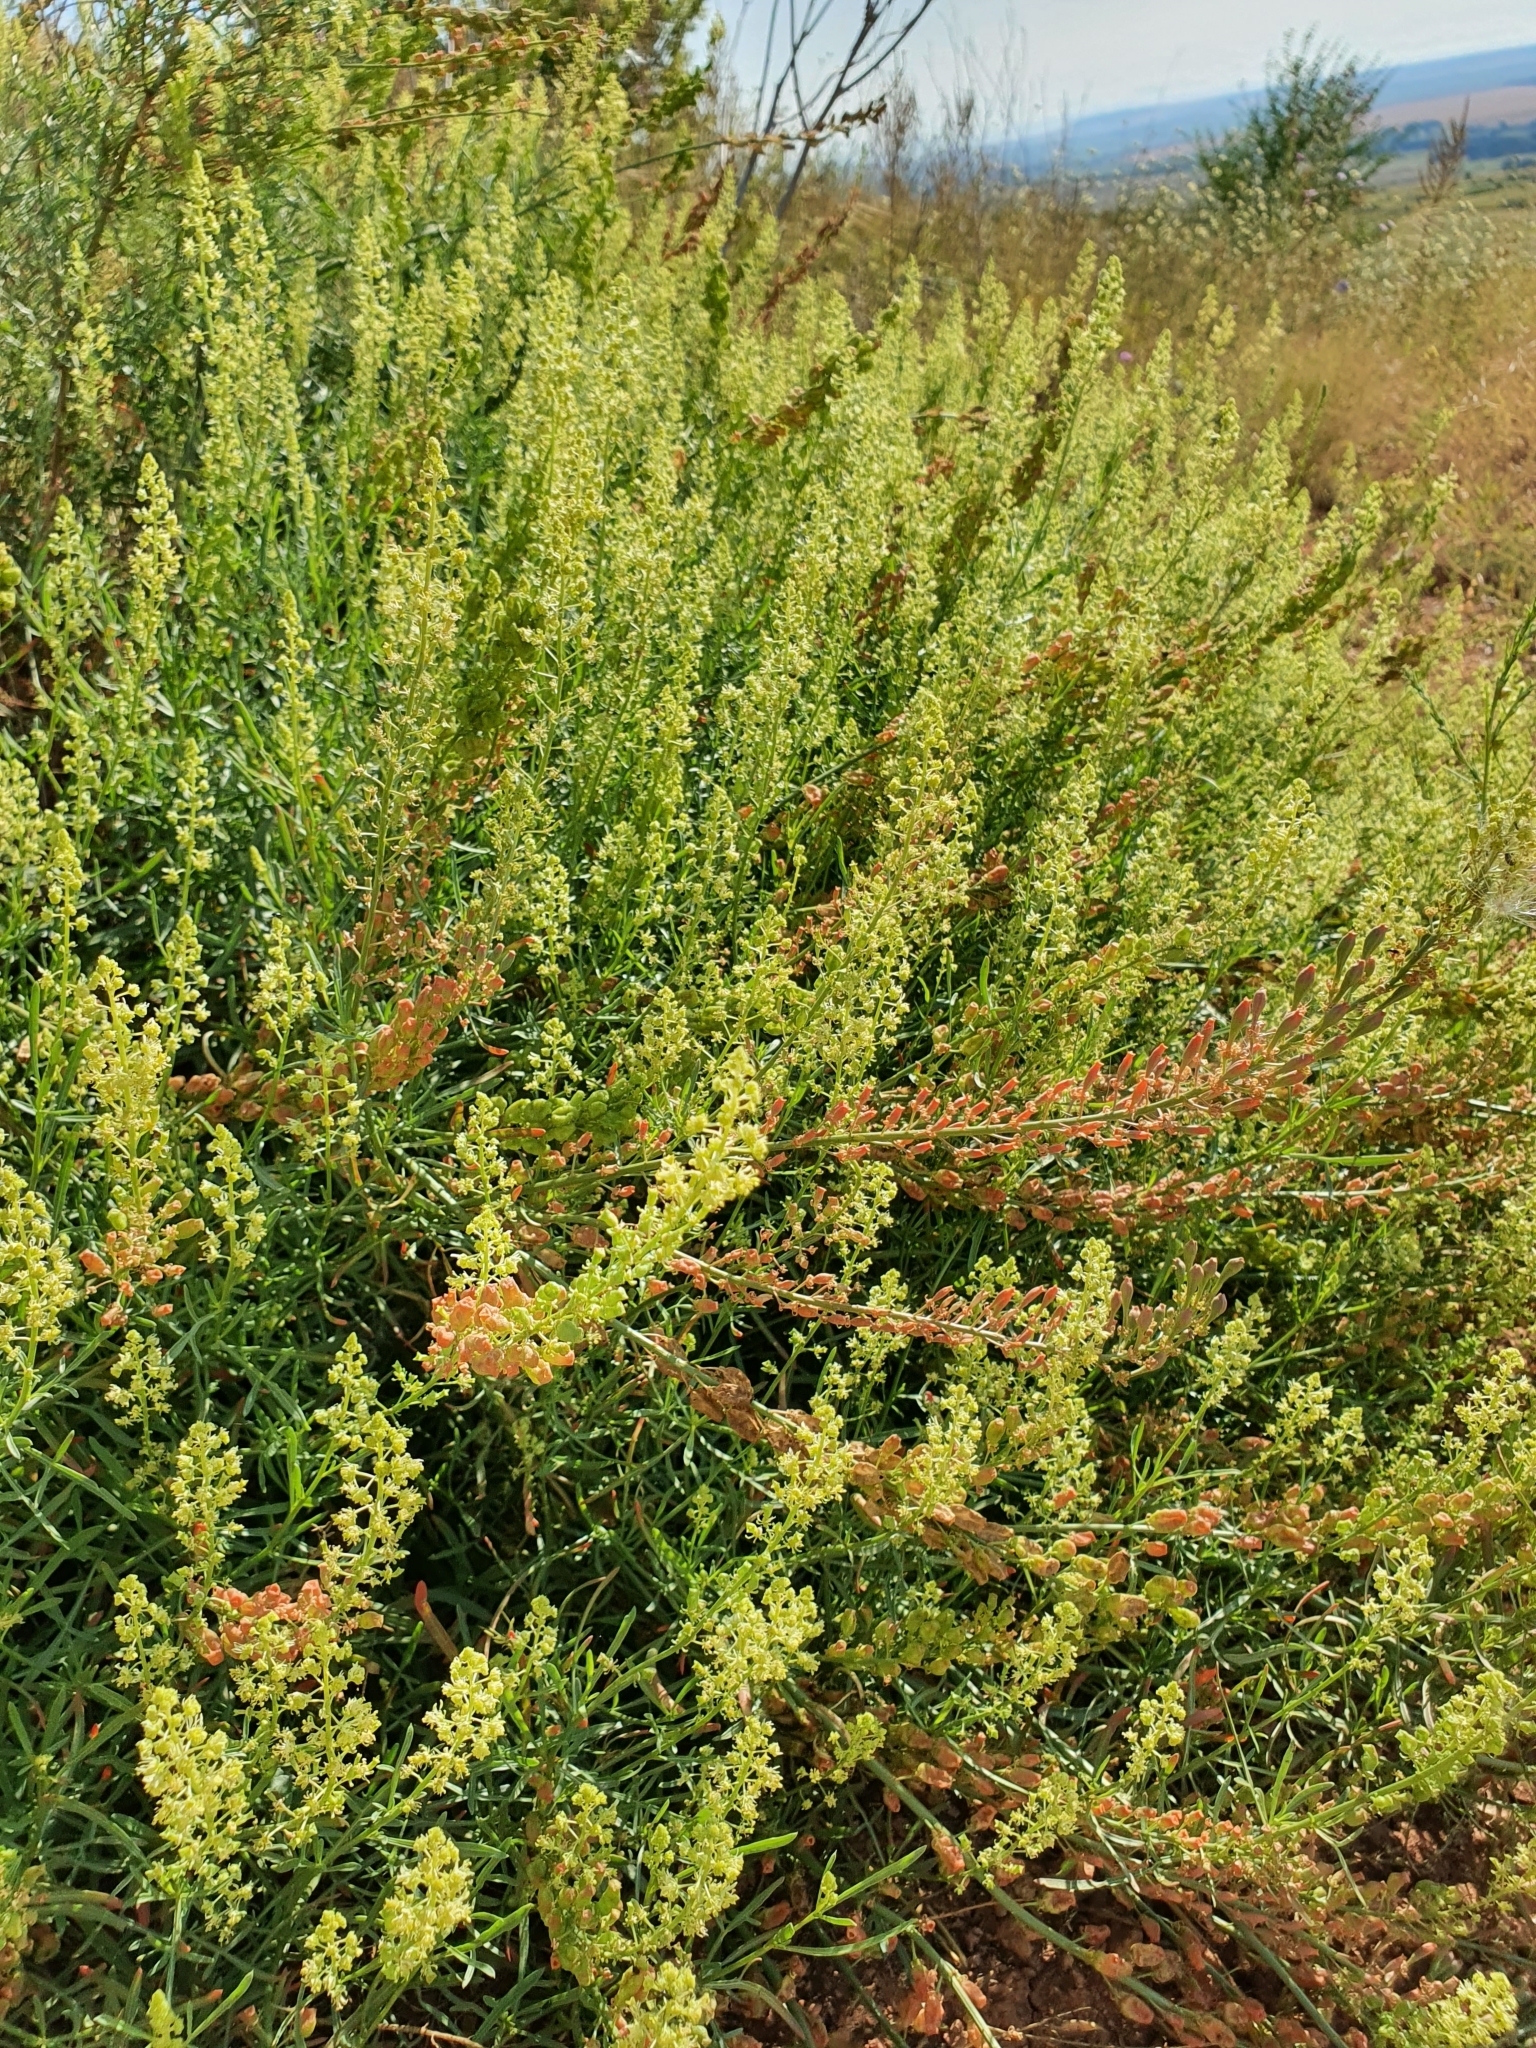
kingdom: Plantae
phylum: Tracheophyta
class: Magnoliopsida
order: Brassicales
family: Resedaceae
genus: Reseda
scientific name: Reseda lutea
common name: Wild mignonette
